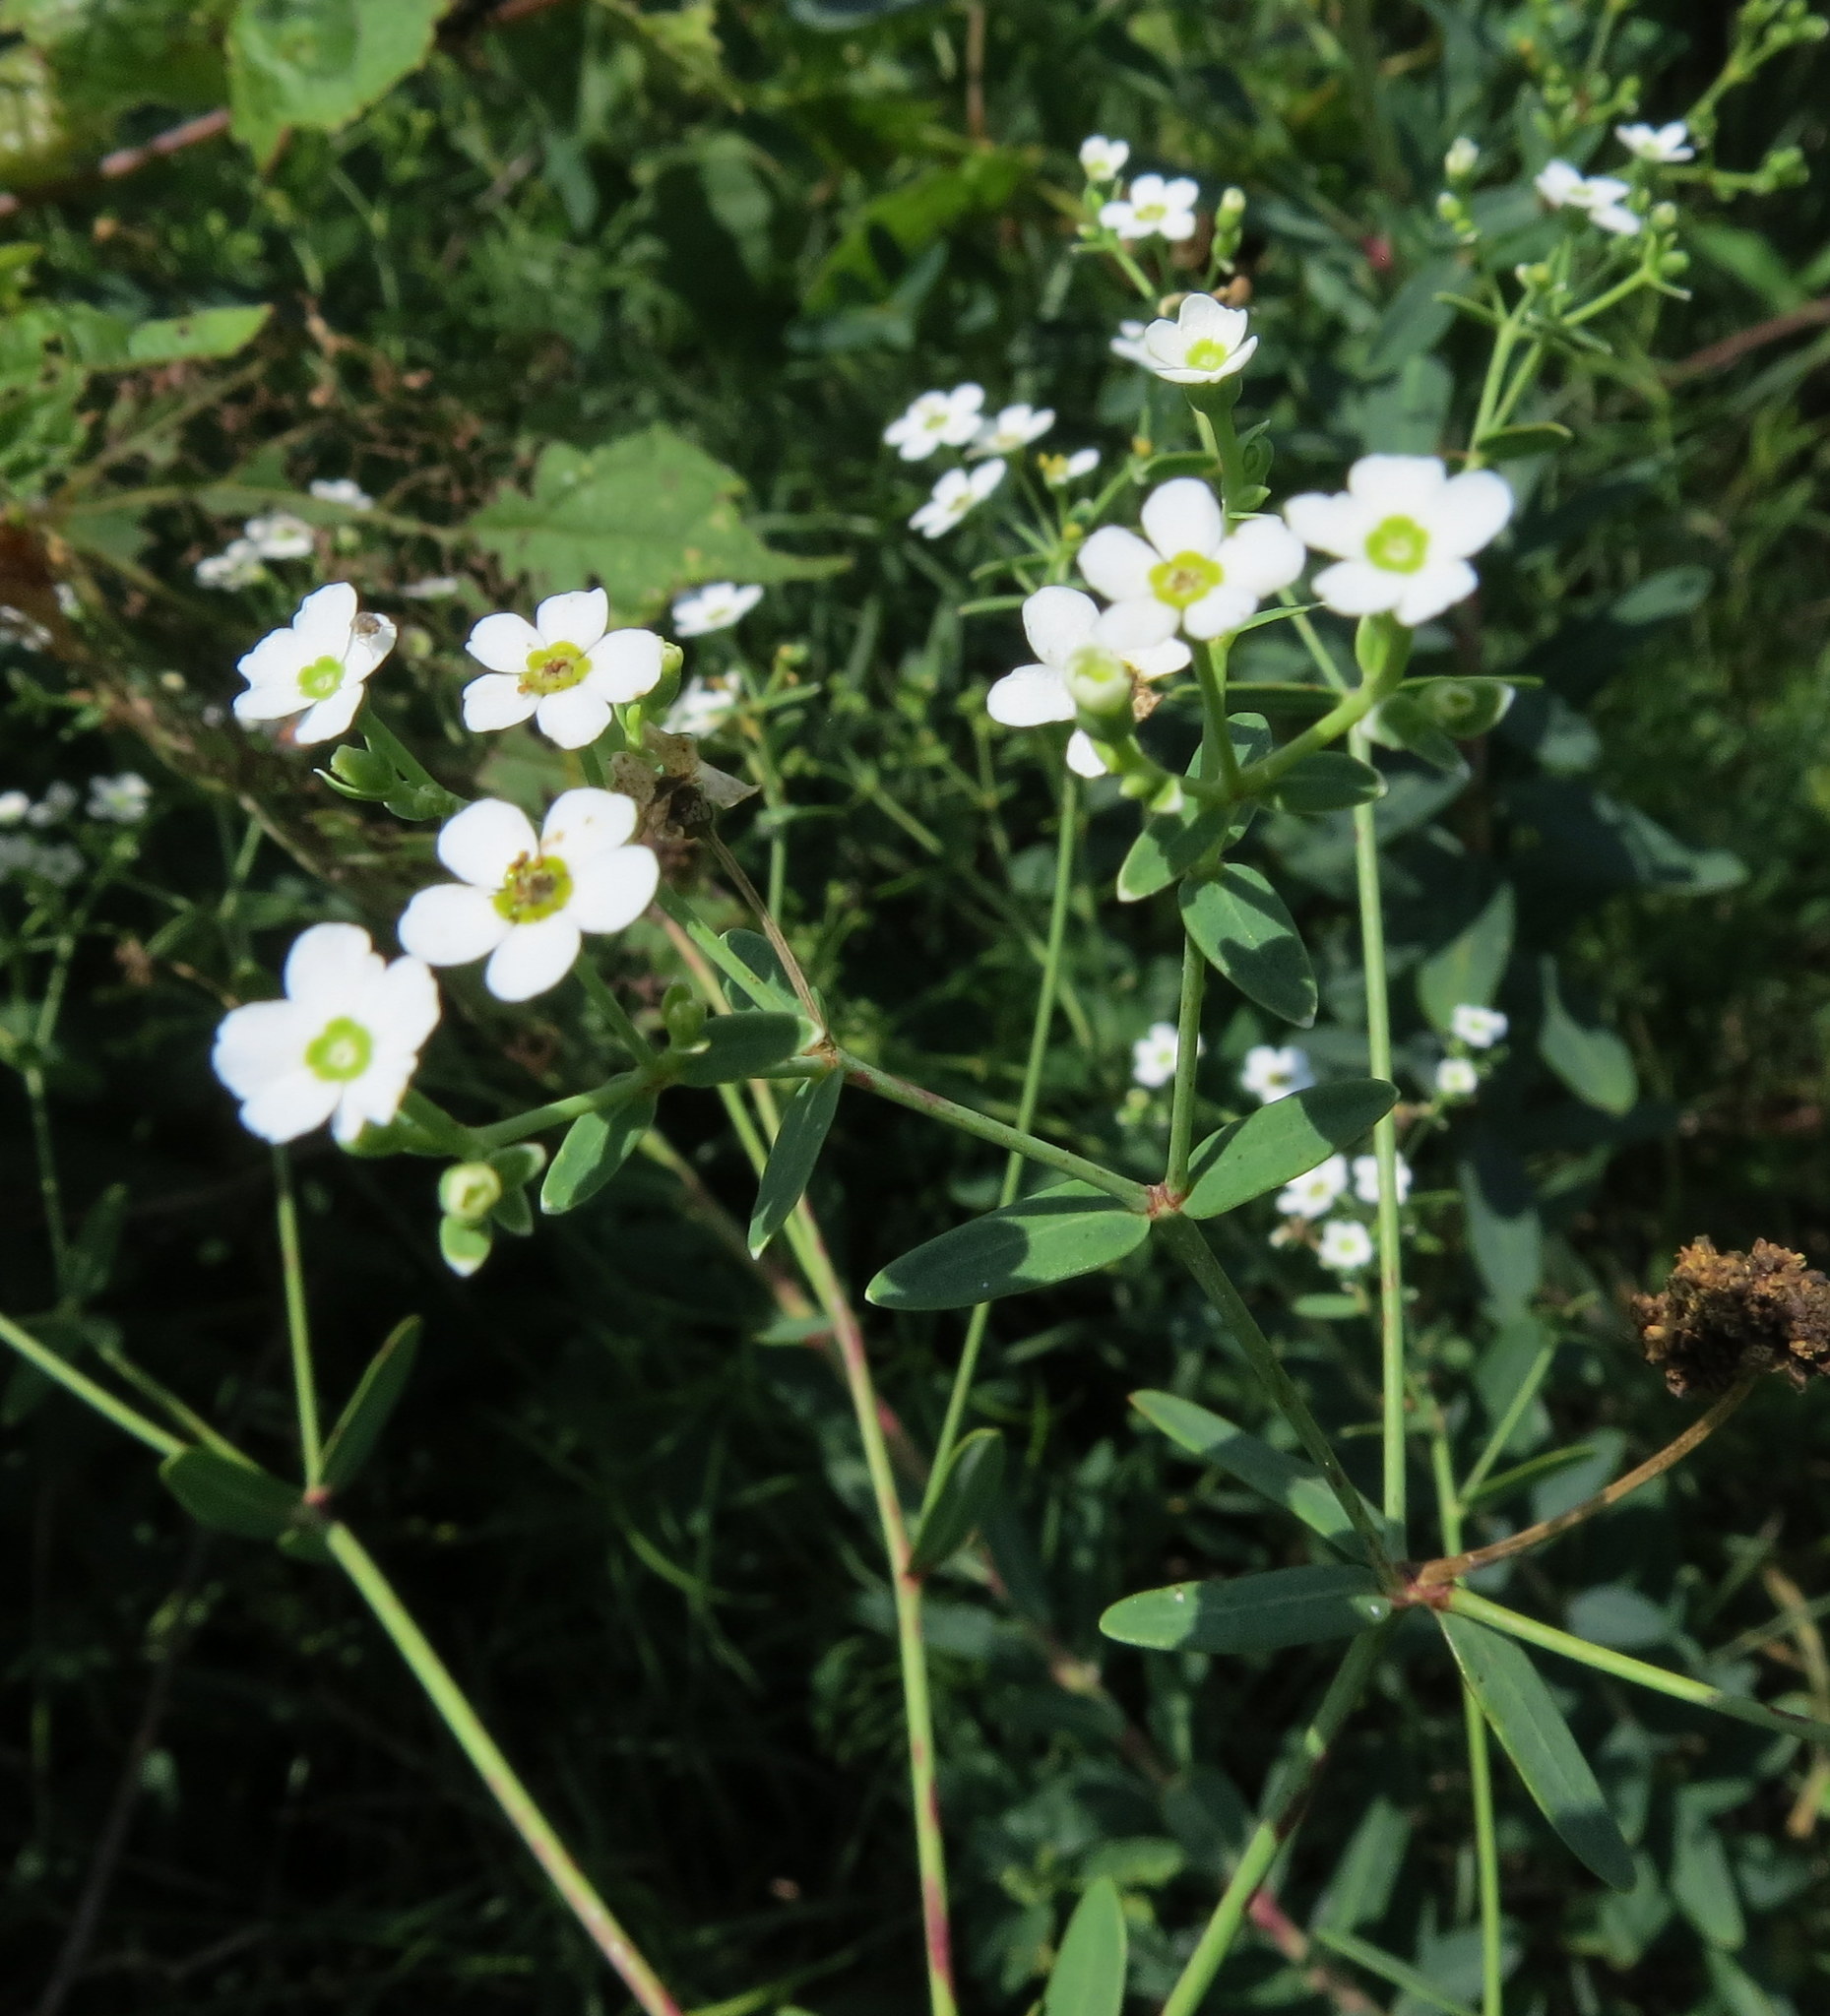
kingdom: Plantae
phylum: Tracheophyta
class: Magnoliopsida
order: Malpighiales
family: Euphorbiaceae
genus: Euphorbia
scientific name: Euphorbia corollata
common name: Flowering spurge
